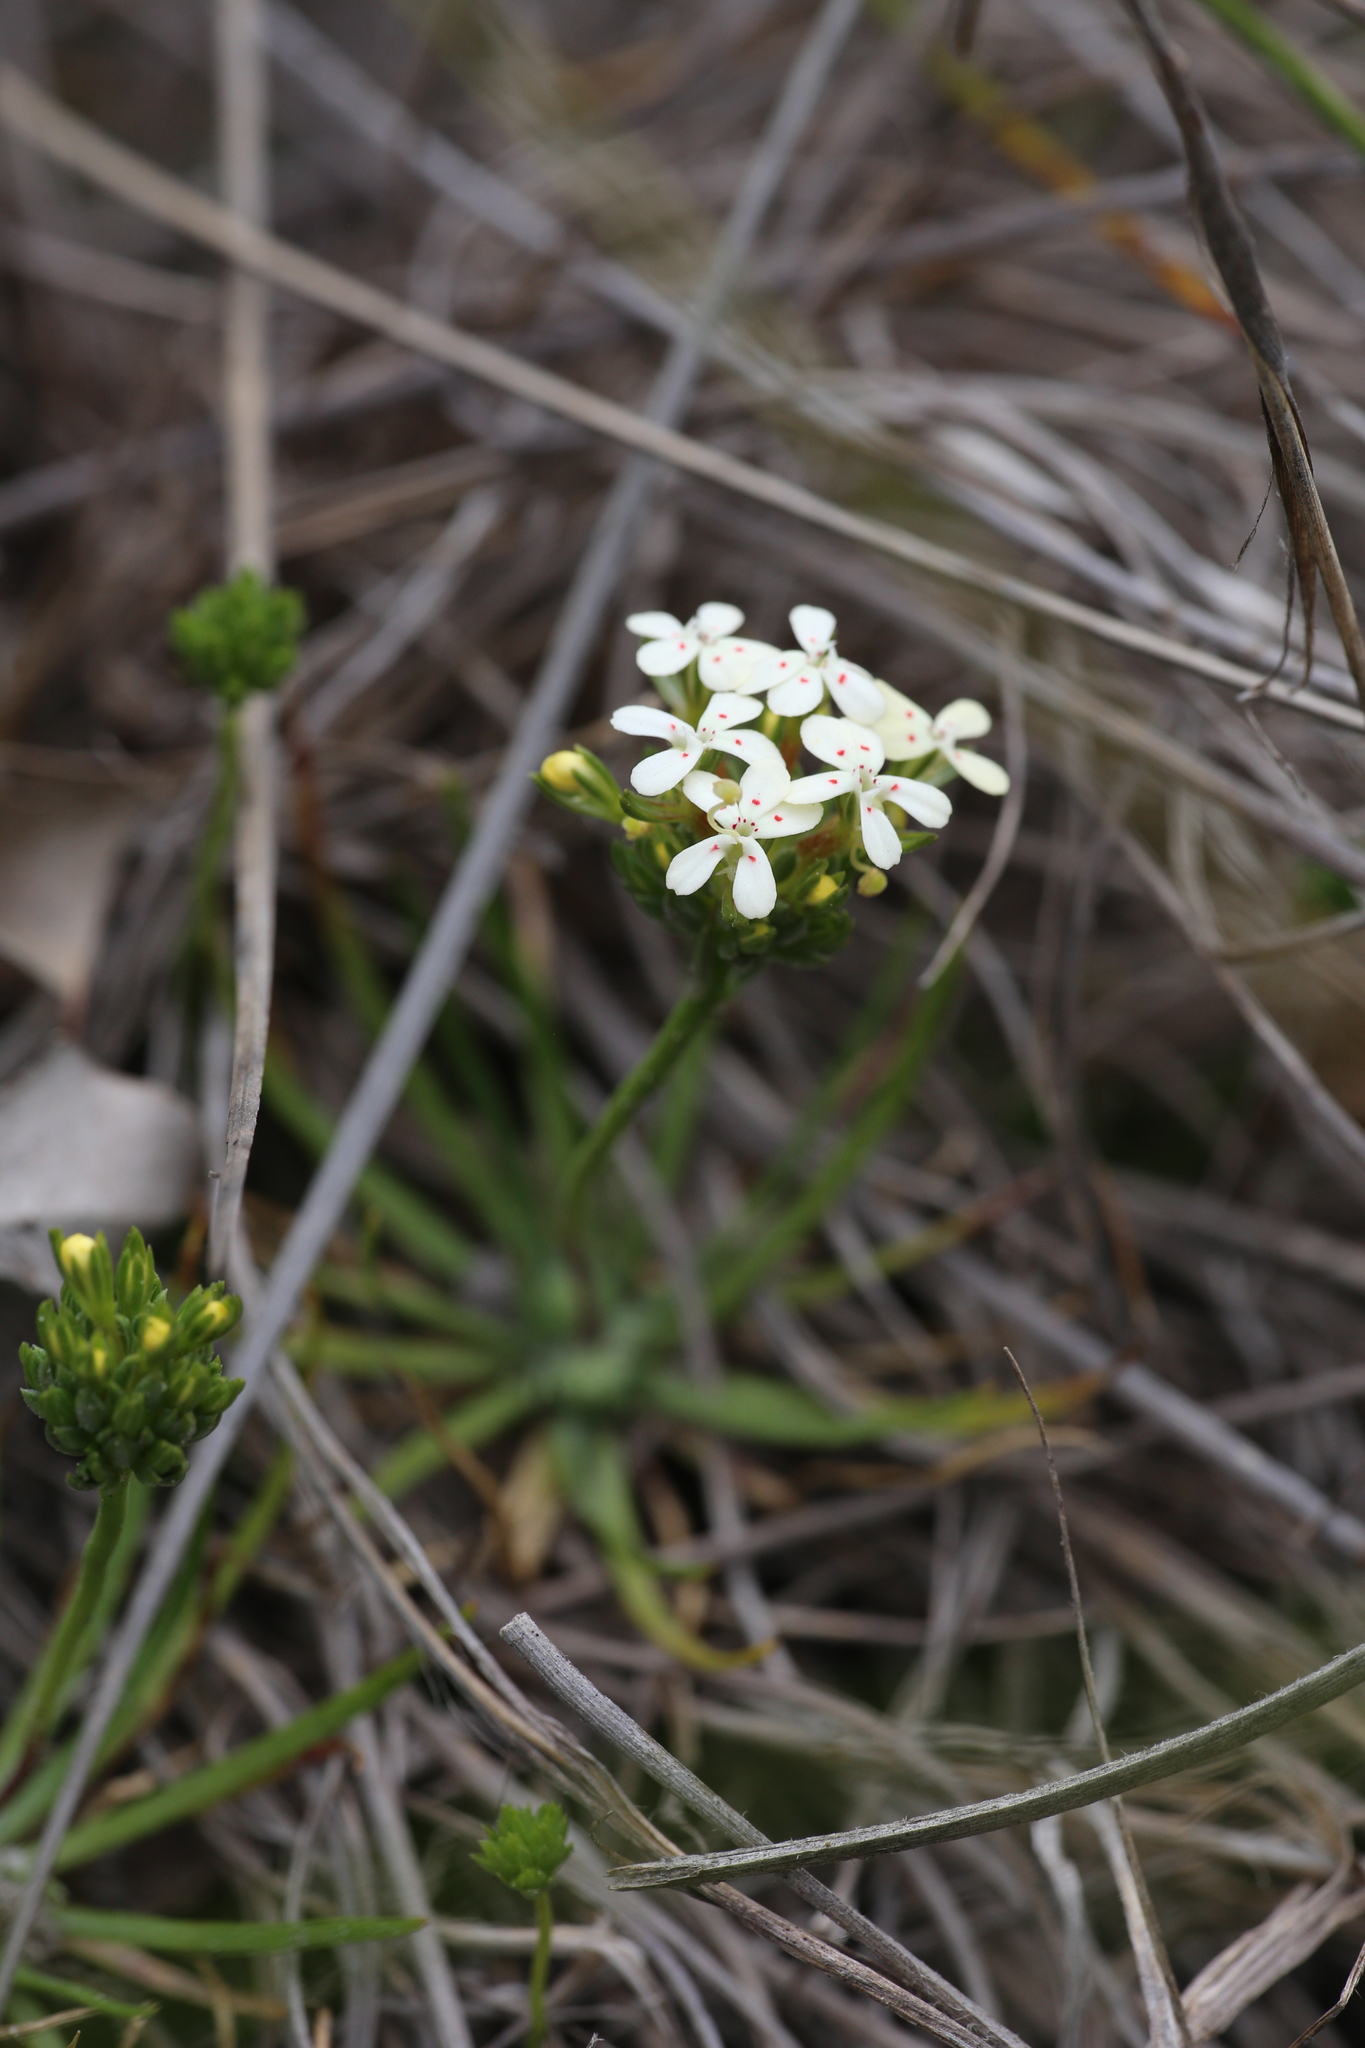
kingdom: Plantae
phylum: Tracheophyta
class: Magnoliopsida
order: Asterales
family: Stylidiaceae
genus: Stylidium
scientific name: Stylidium guttatum
